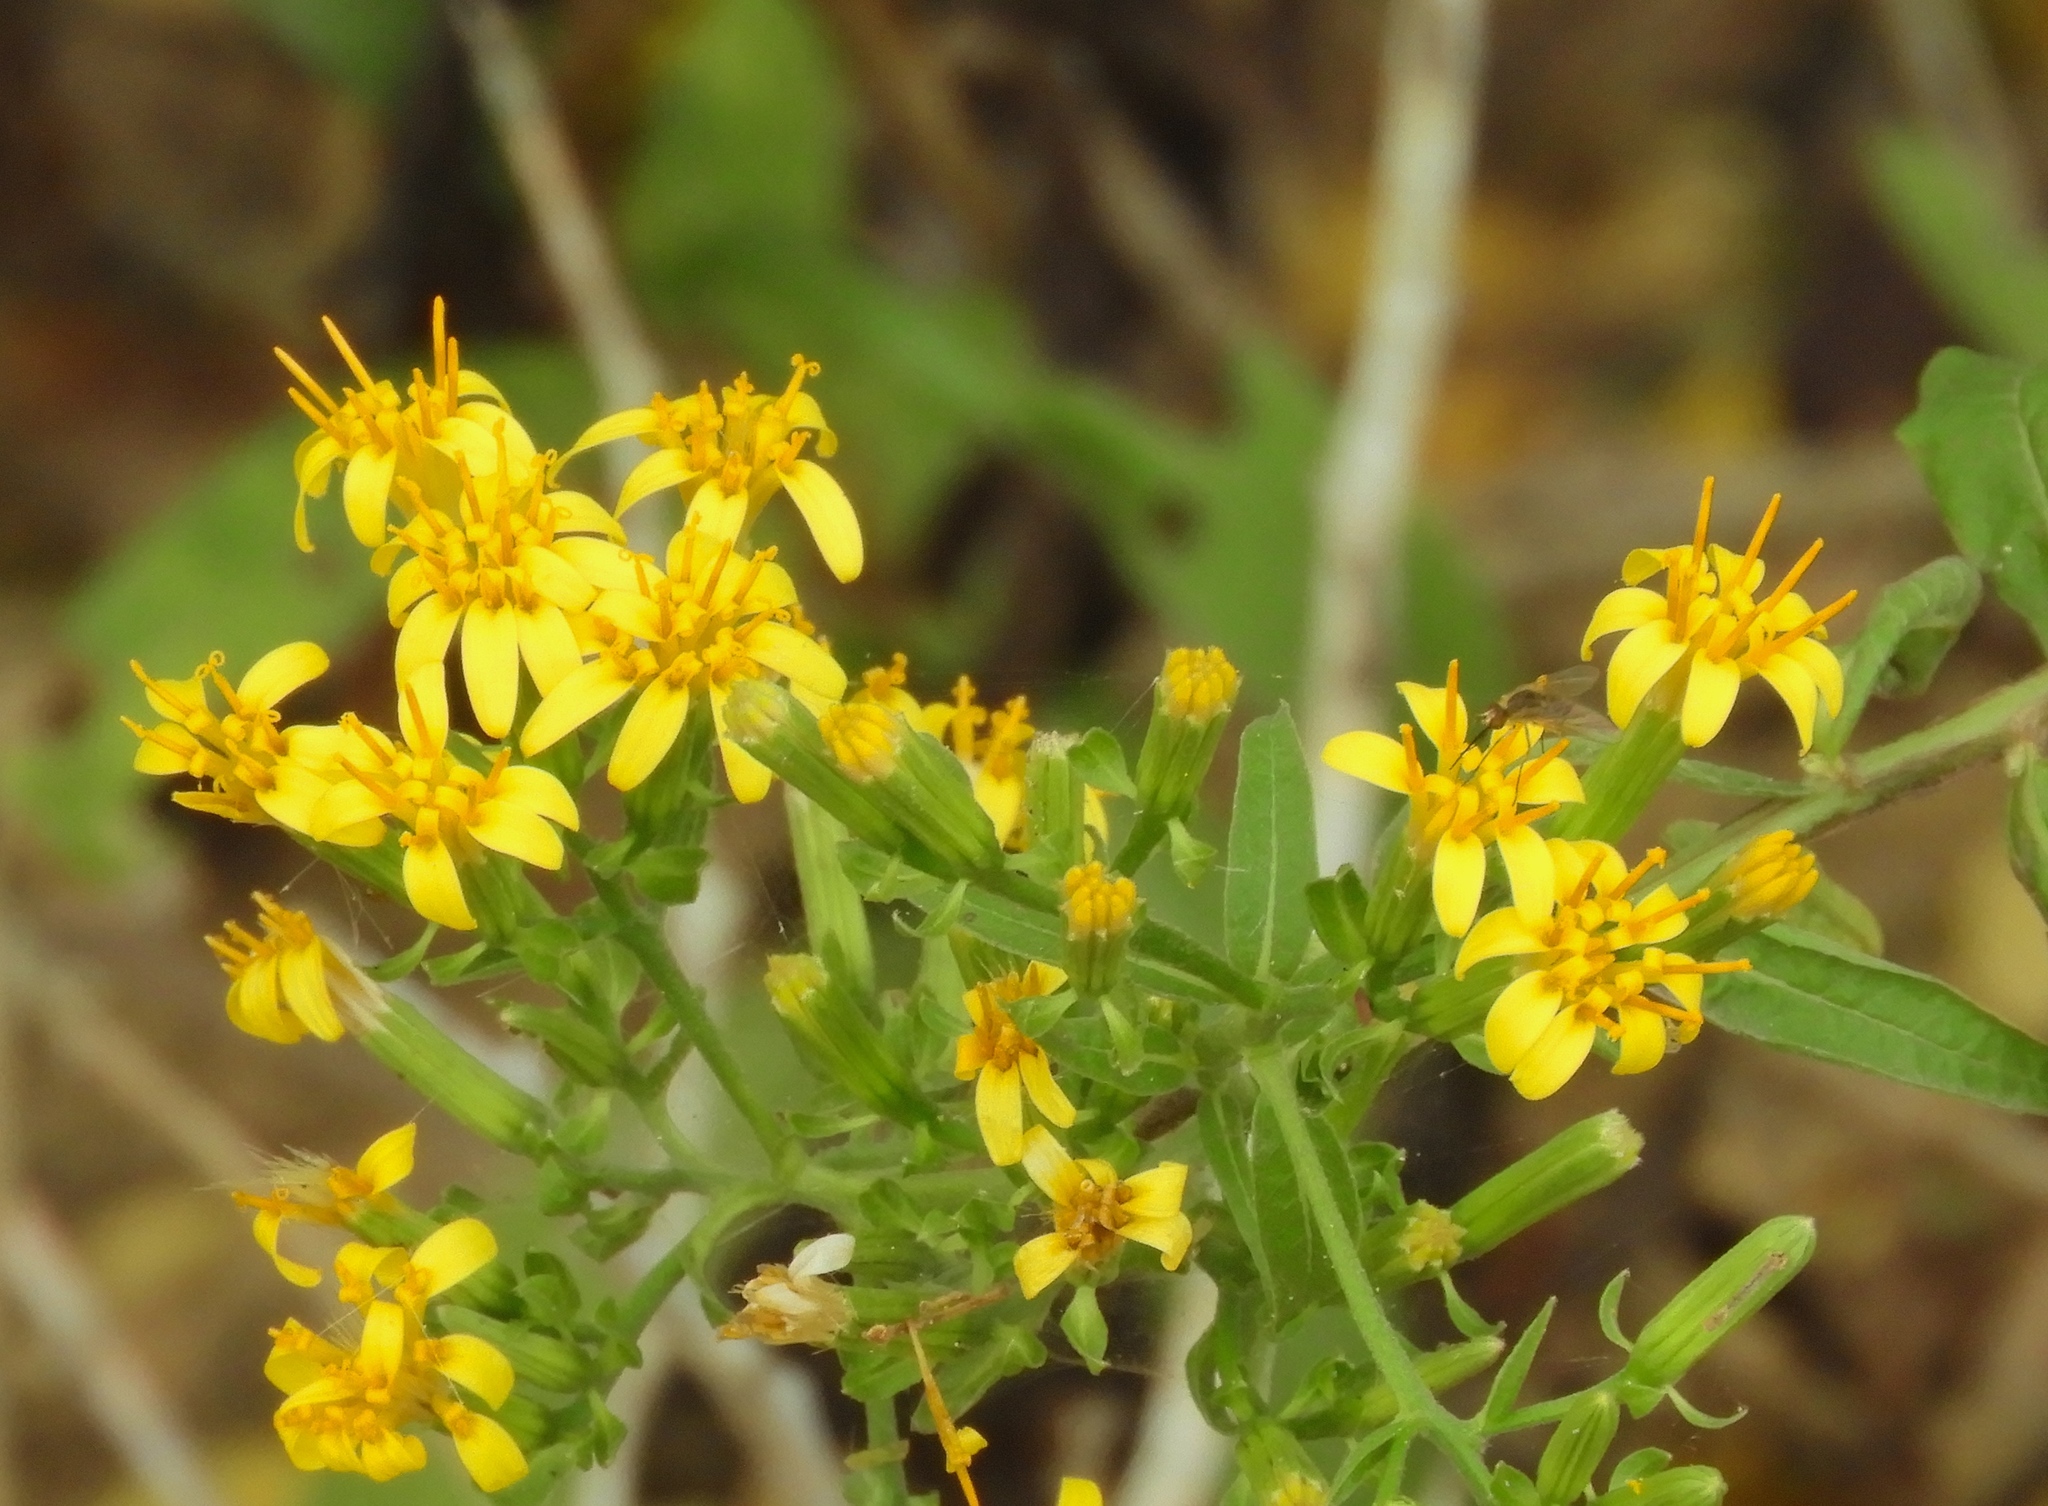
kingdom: Plantae
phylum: Tracheophyta
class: Magnoliopsida
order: Asterales
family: Asteraceae
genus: Trixis
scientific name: Trixis pterocaulis
